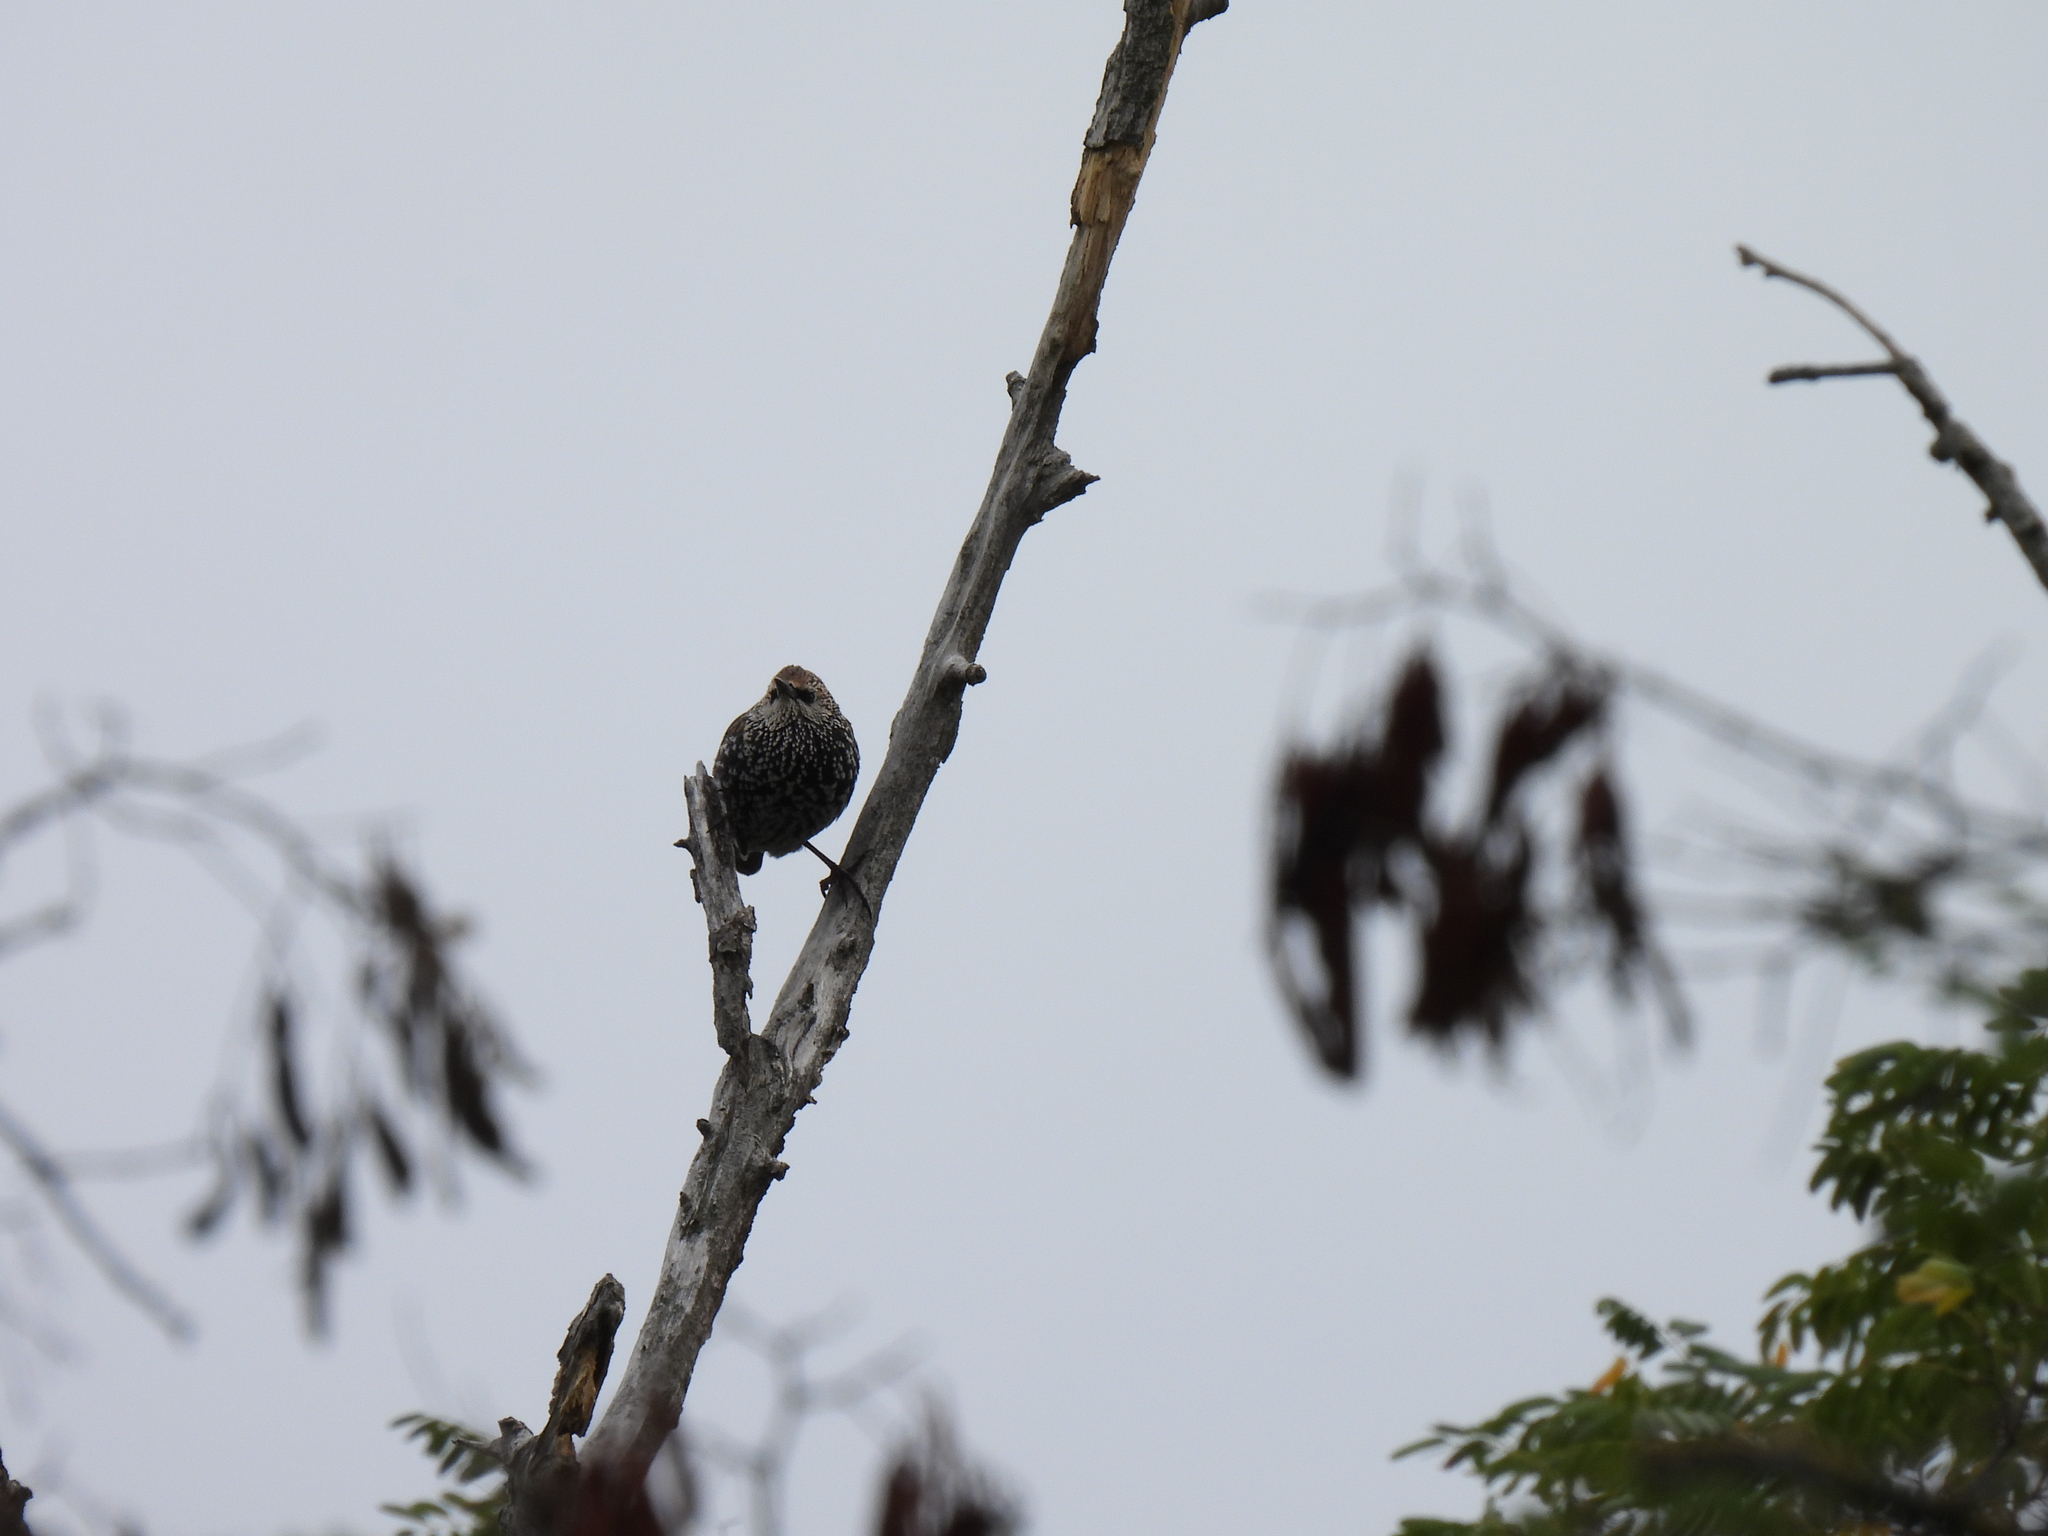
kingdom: Animalia
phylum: Chordata
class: Aves
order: Passeriformes
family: Sturnidae
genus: Sturnus
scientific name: Sturnus vulgaris
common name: Common starling
